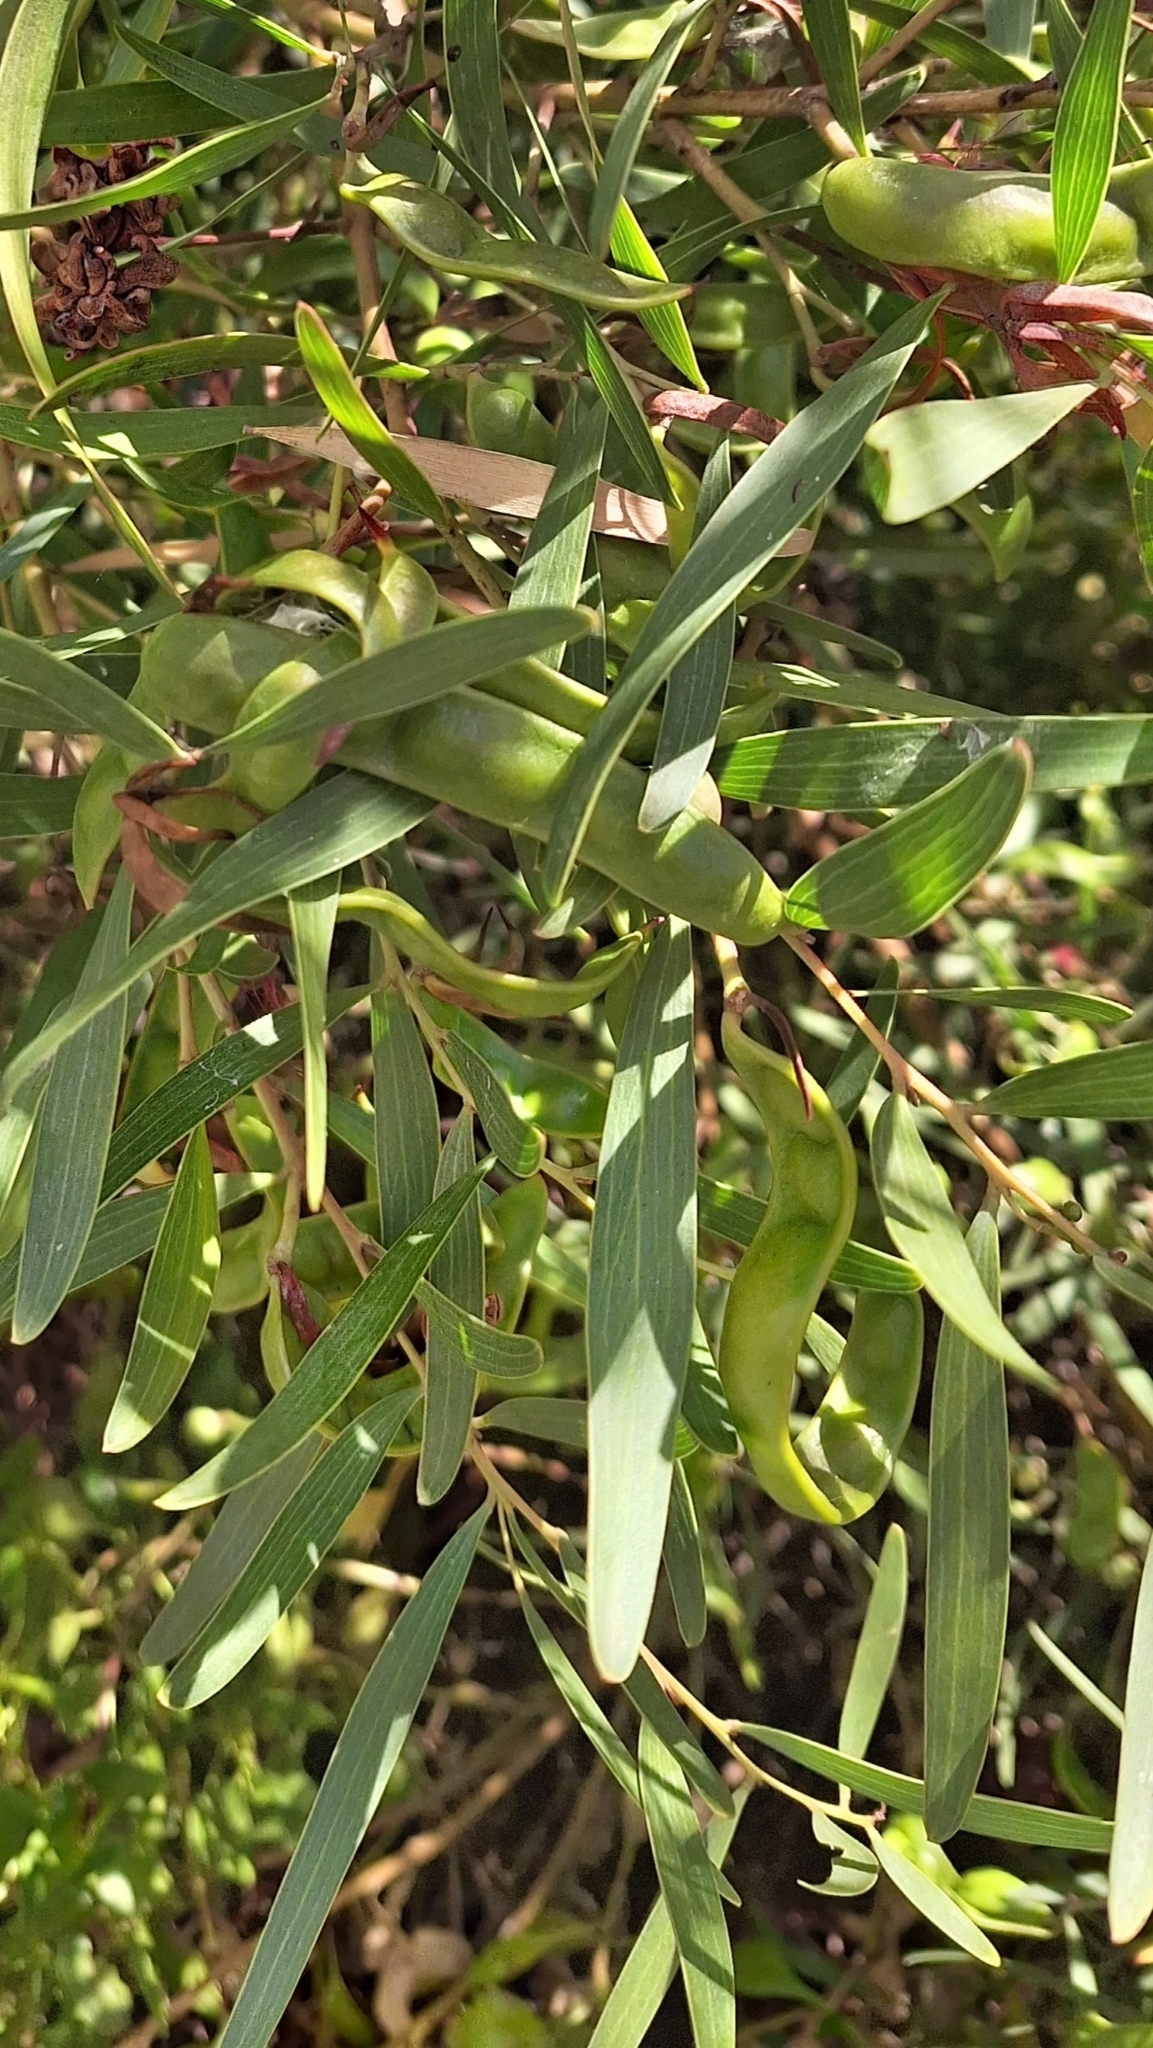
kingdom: Plantae
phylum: Tracheophyta
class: Magnoliopsida
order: Fabales
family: Fabaceae
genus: Acacia
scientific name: Acacia cyclops
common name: Coastal wattle
